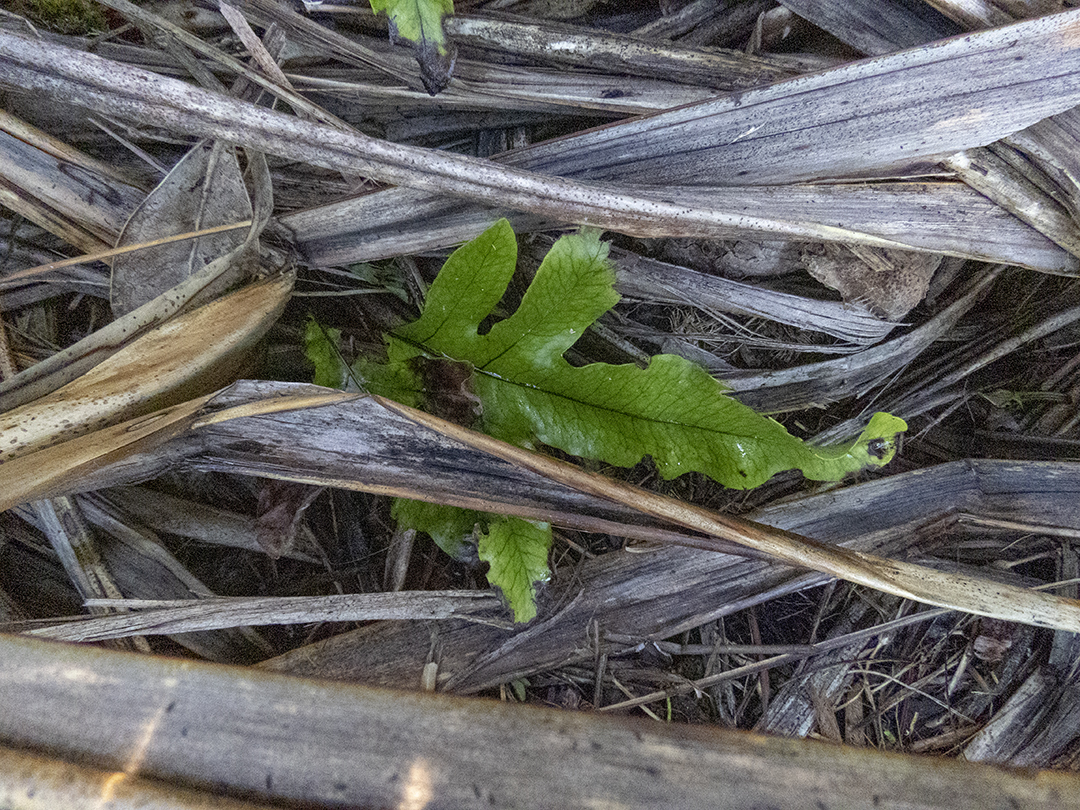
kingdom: Plantae
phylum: Tracheophyta
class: Polypodiopsida
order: Polypodiales
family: Polypodiaceae
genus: Lecanopteris
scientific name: Lecanopteris pustulata
